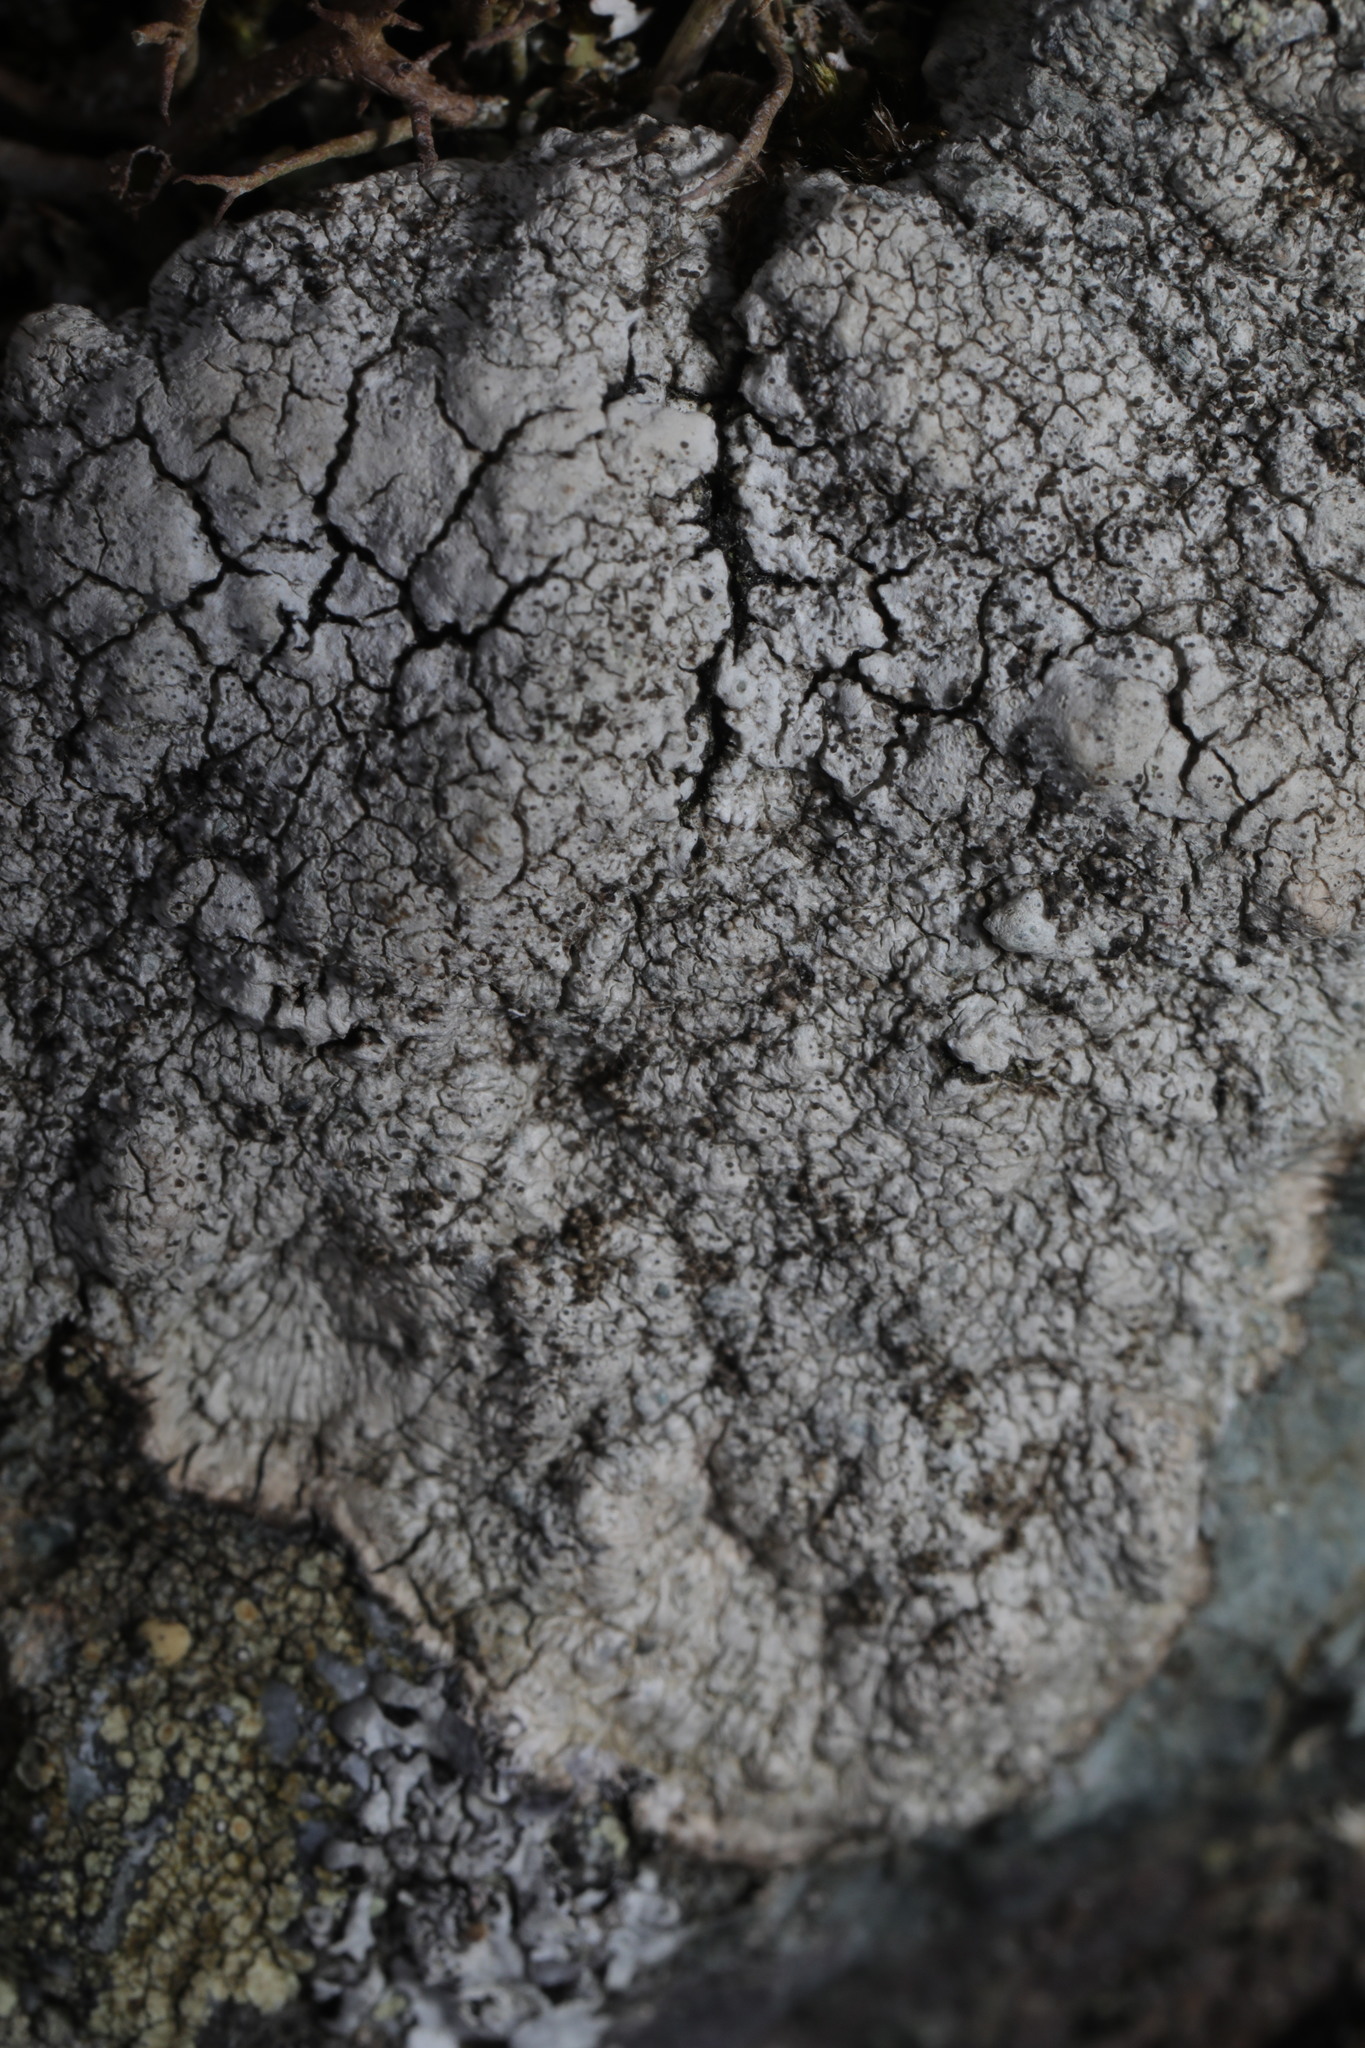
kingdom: Fungi
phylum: Ascomycota
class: Lecanoromycetes
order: Pertusariales
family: Pertusariaceae
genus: Pertusaria
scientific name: Pertusaria pseudocorallina
